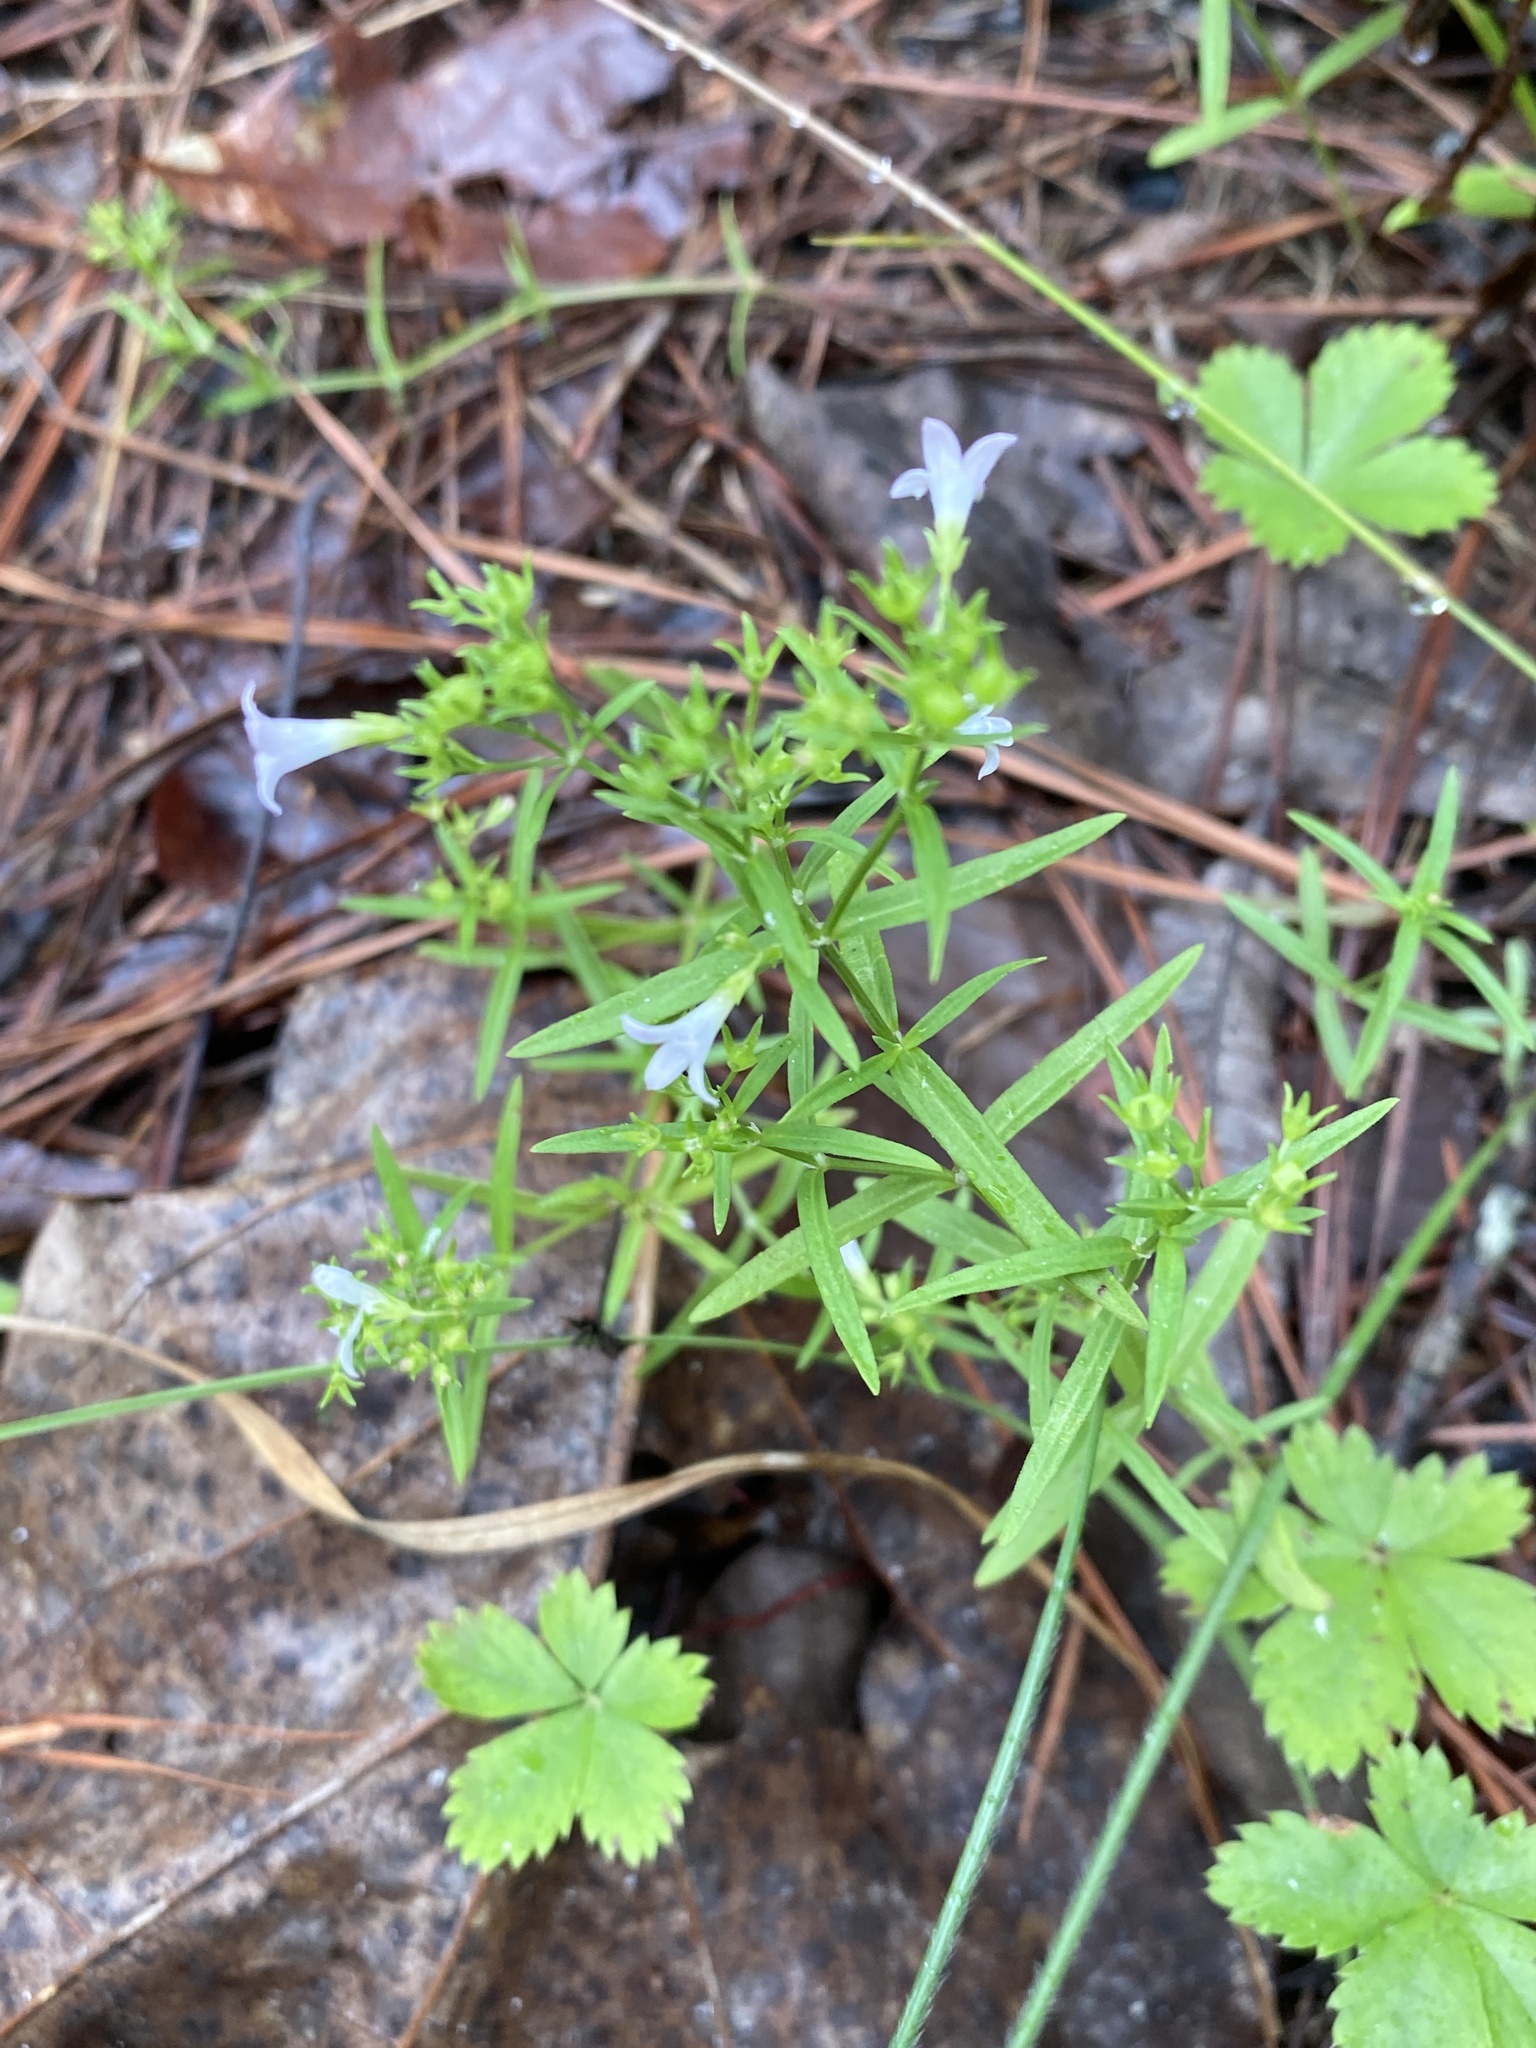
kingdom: Plantae
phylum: Tracheophyta
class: Magnoliopsida
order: Gentianales
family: Rubiaceae
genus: Houstonia
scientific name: Houstonia longifolia
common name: Long-leaved bluets
